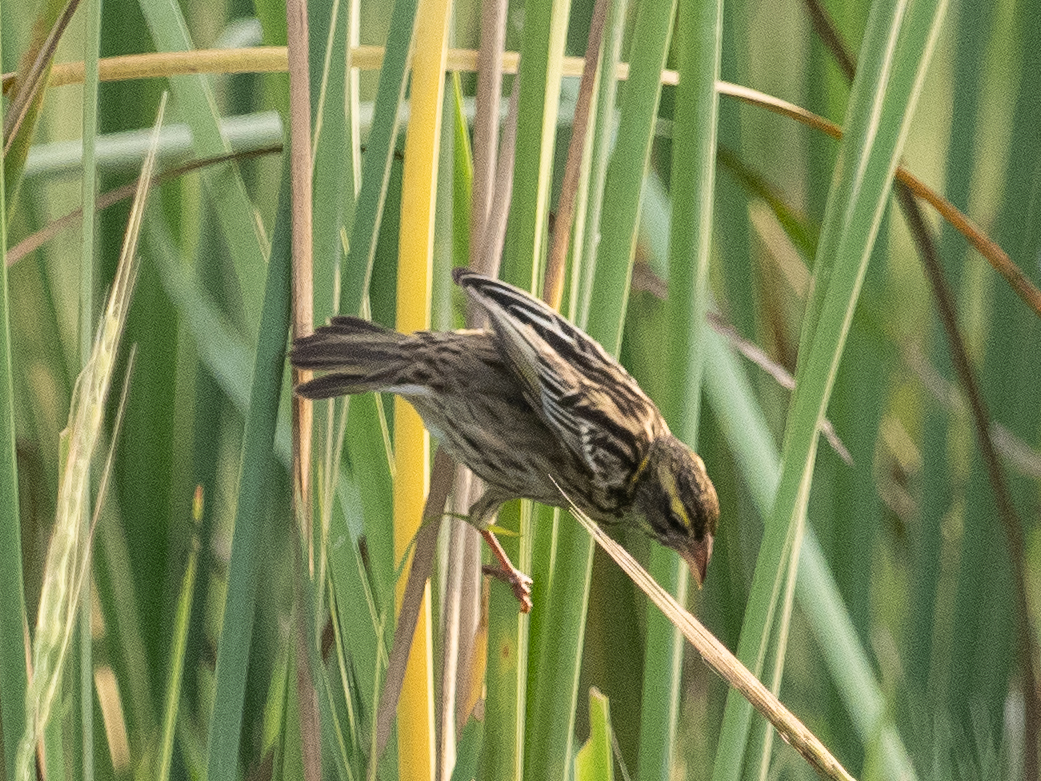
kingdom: Animalia
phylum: Chordata
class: Aves
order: Passeriformes
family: Ploceidae
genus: Ploceus
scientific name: Ploceus manyar
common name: Streaked weaver
